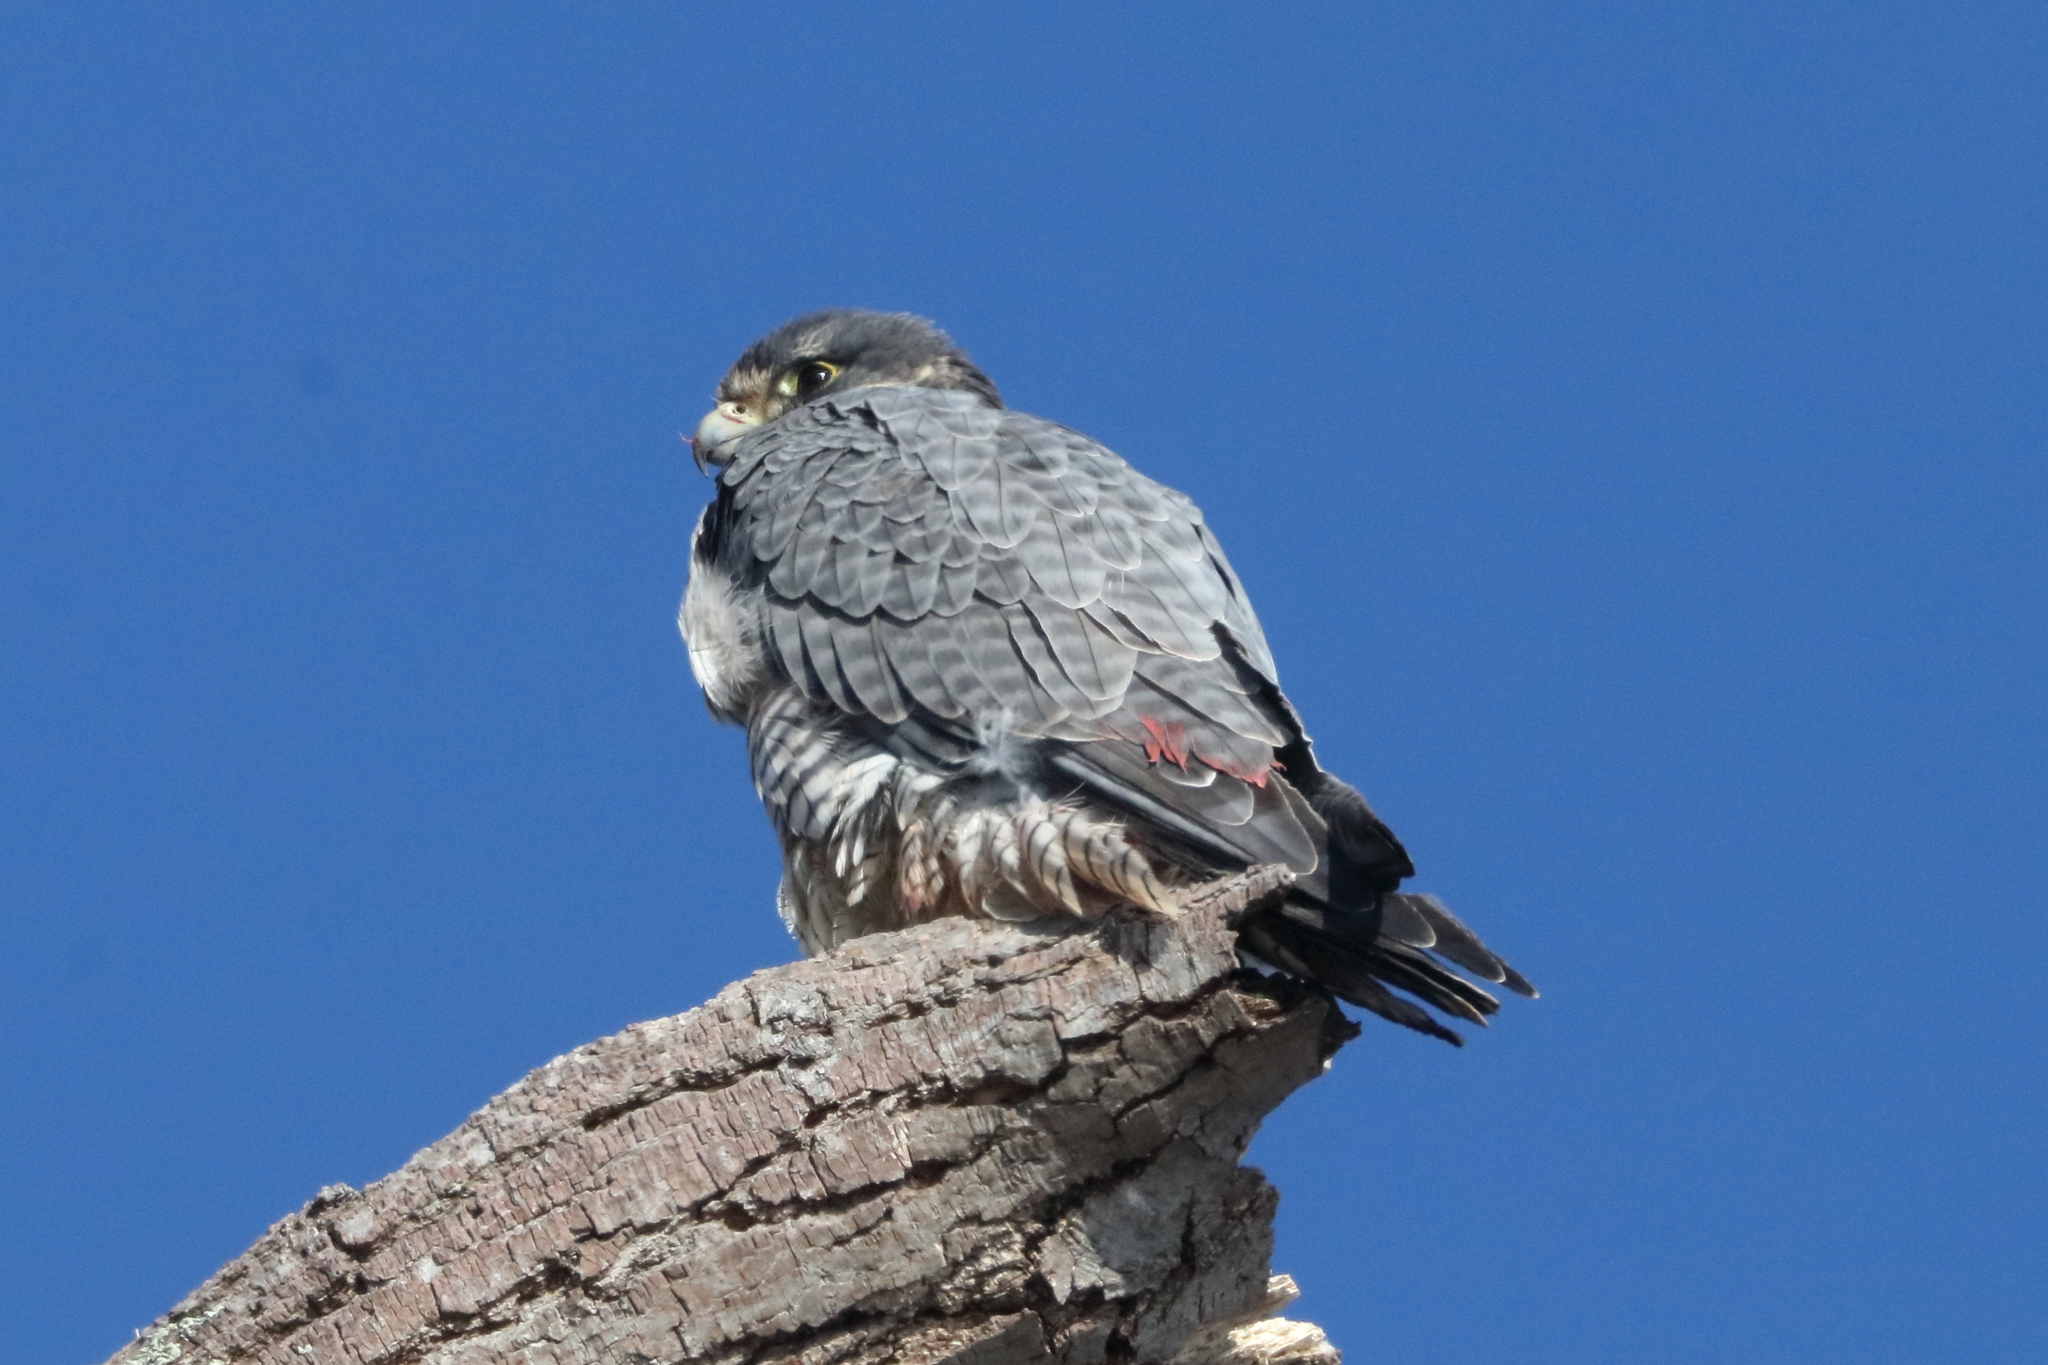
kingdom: Animalia
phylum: Chordata
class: Aves
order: Falconiformes
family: Falconidae
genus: Falco
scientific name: Falco peregrinus
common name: Peregrine falcon
